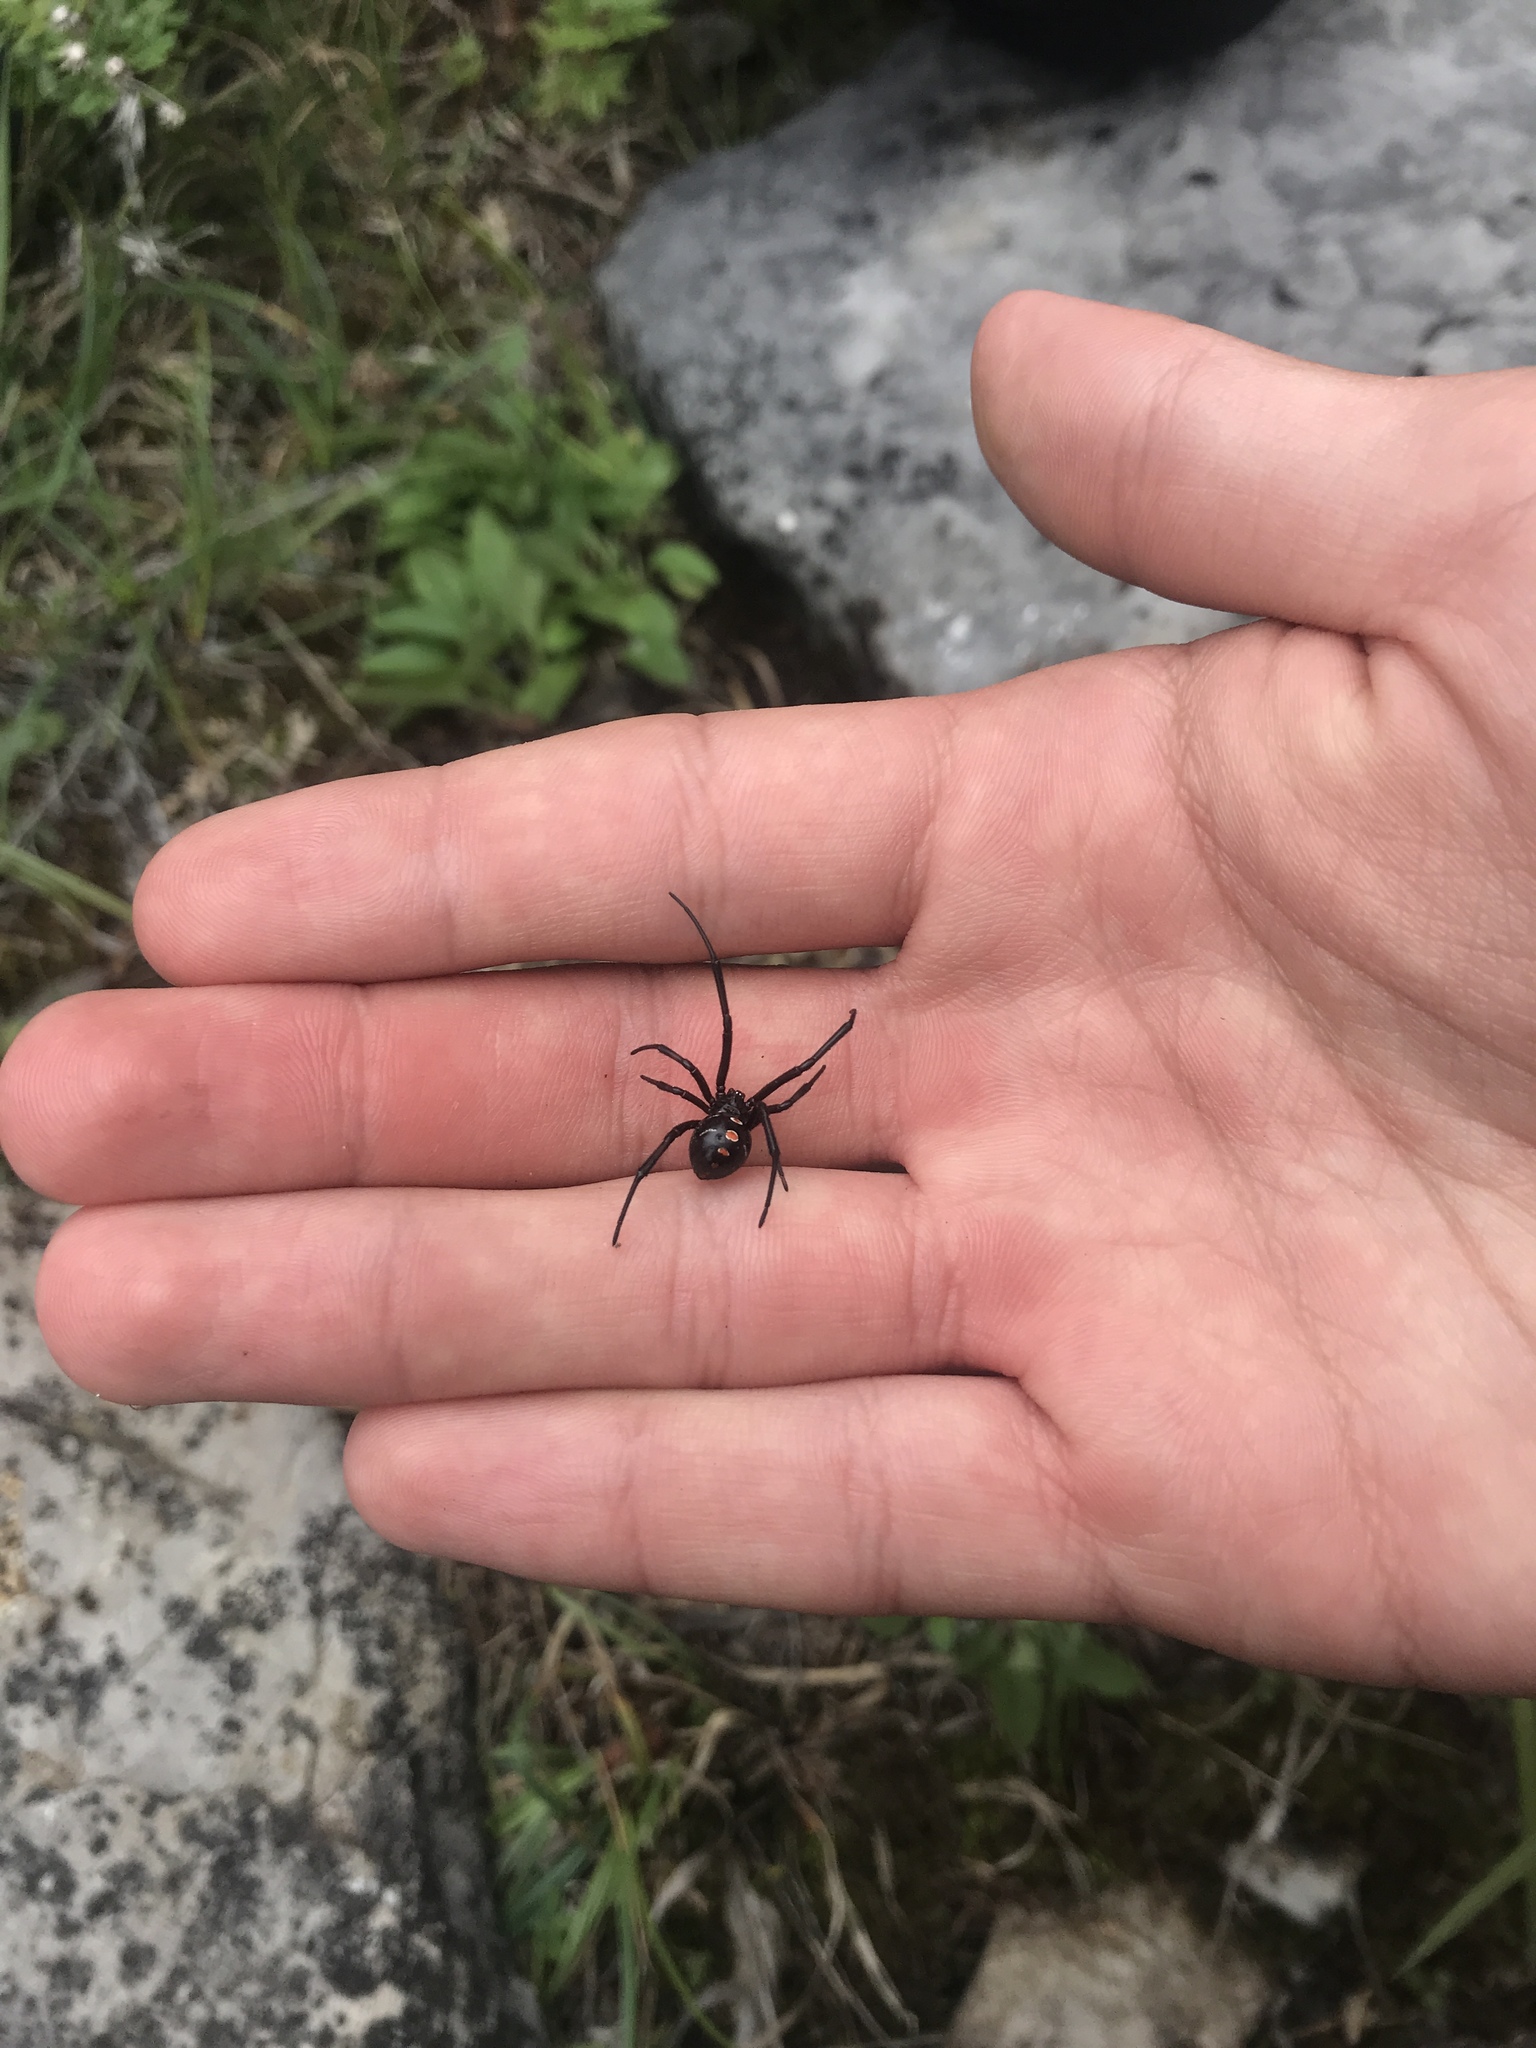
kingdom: Animalia
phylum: Arthropoda
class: Arachnida
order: Araneae
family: Theridiidae
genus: Latrodectus
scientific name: Latrodectus variolus
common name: Northern black widow
